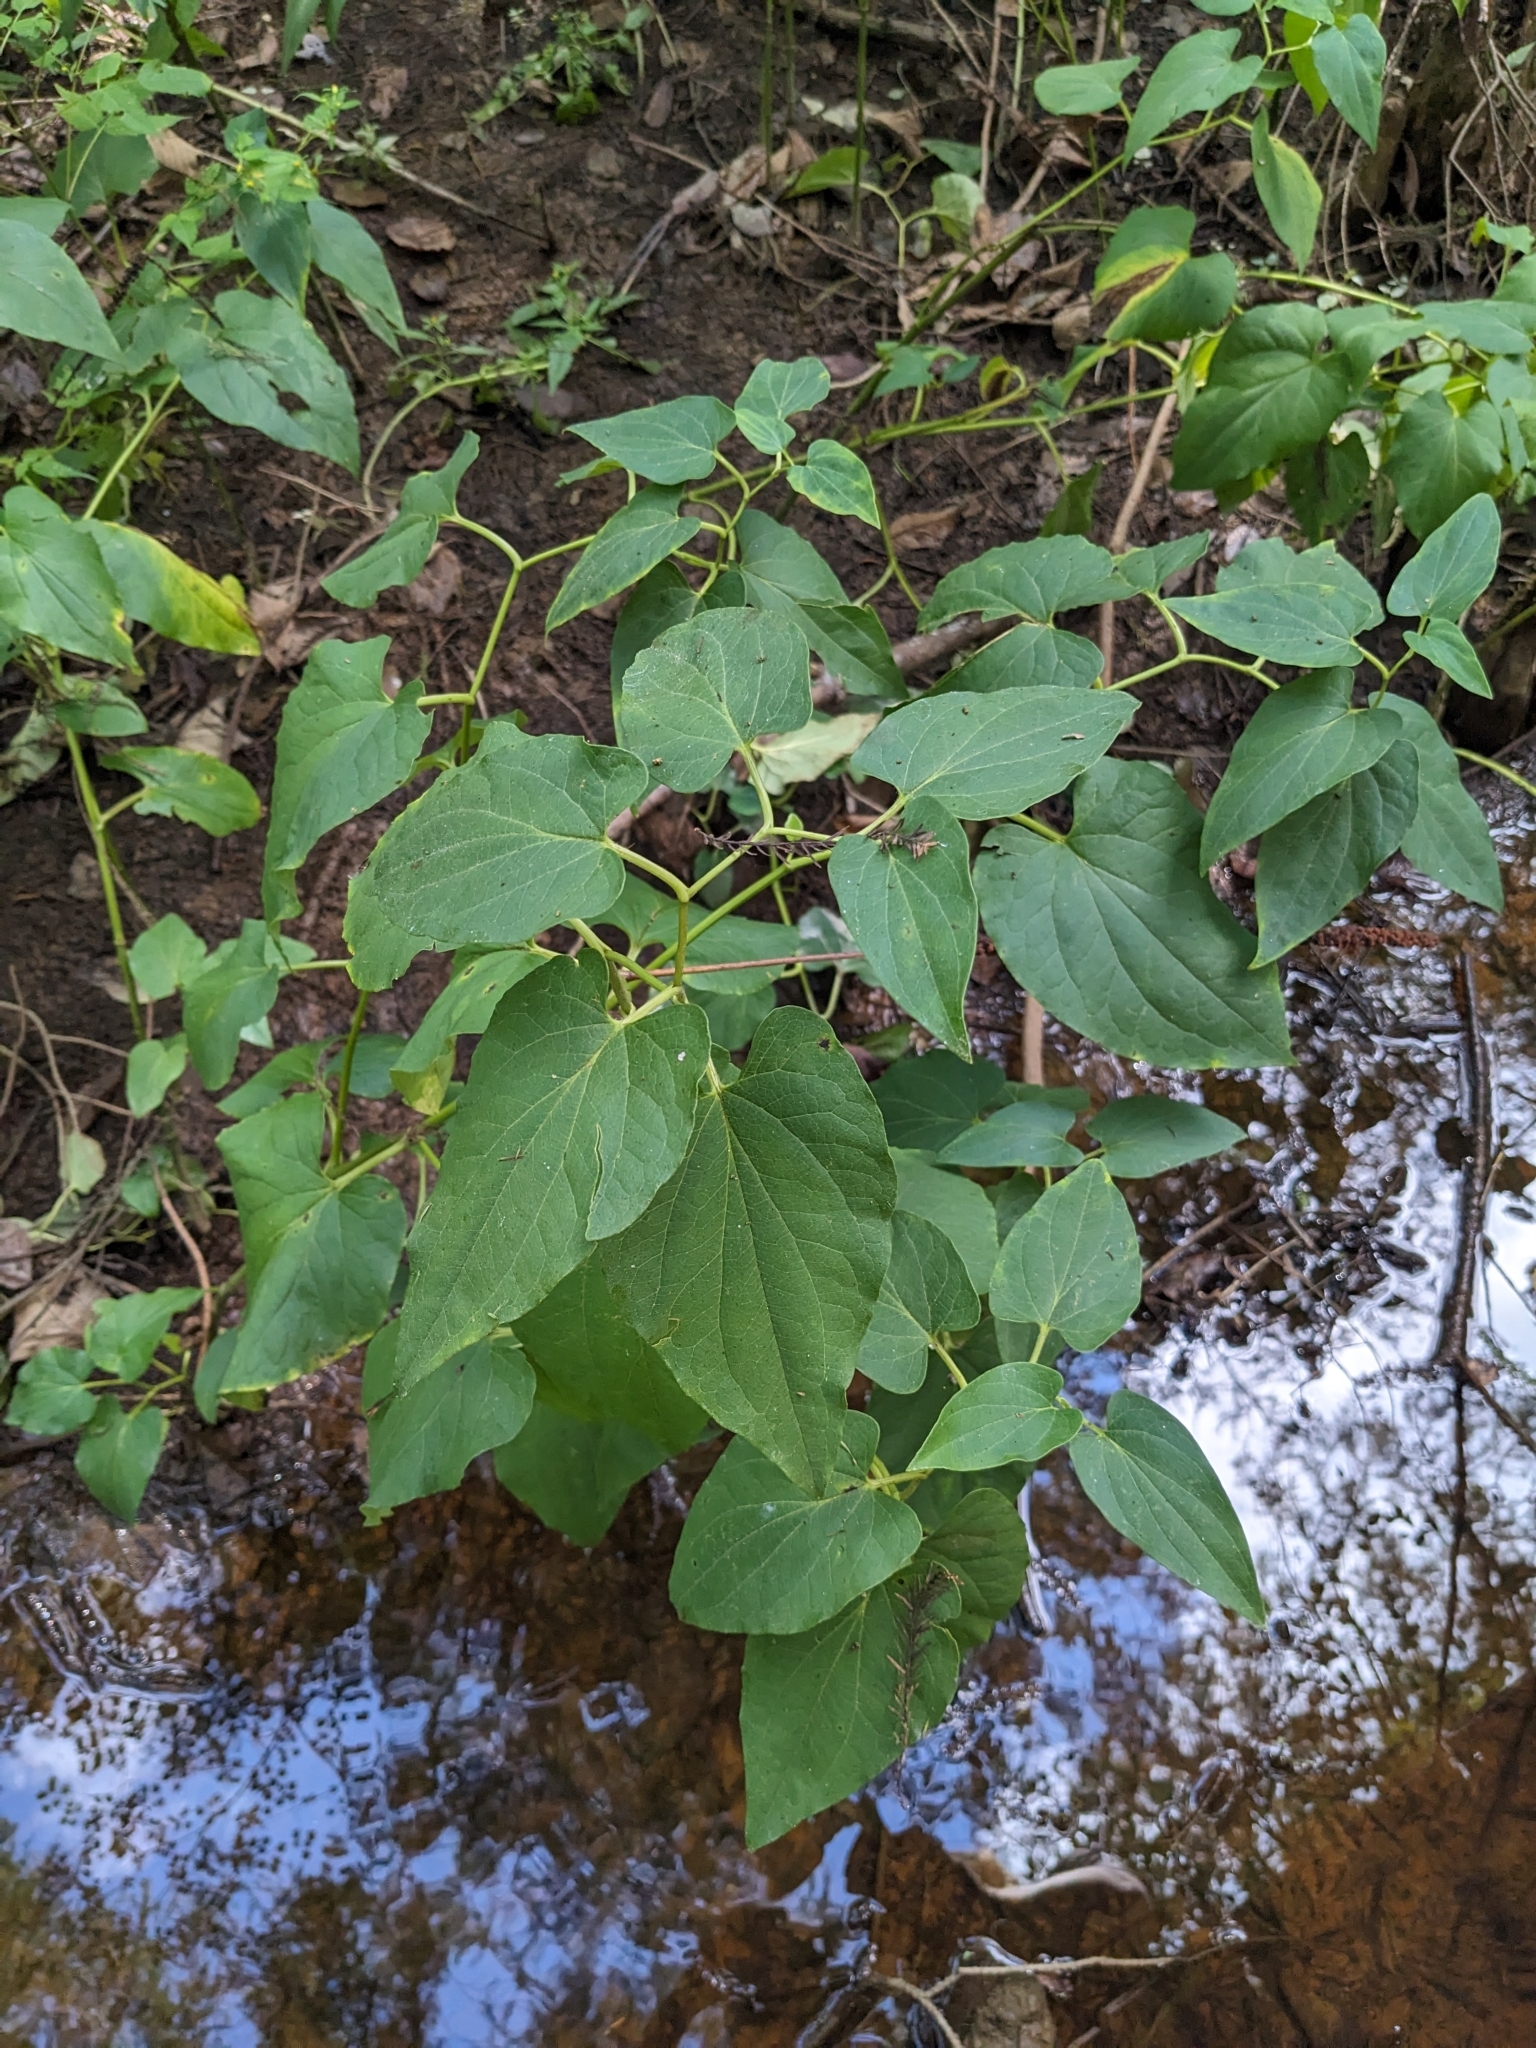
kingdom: Plantae
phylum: Tracheophyta
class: Magnoliopsida
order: Piperales
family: Saururaceae
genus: Saururus
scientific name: Saururus cernuus
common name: Lizard's-tail
